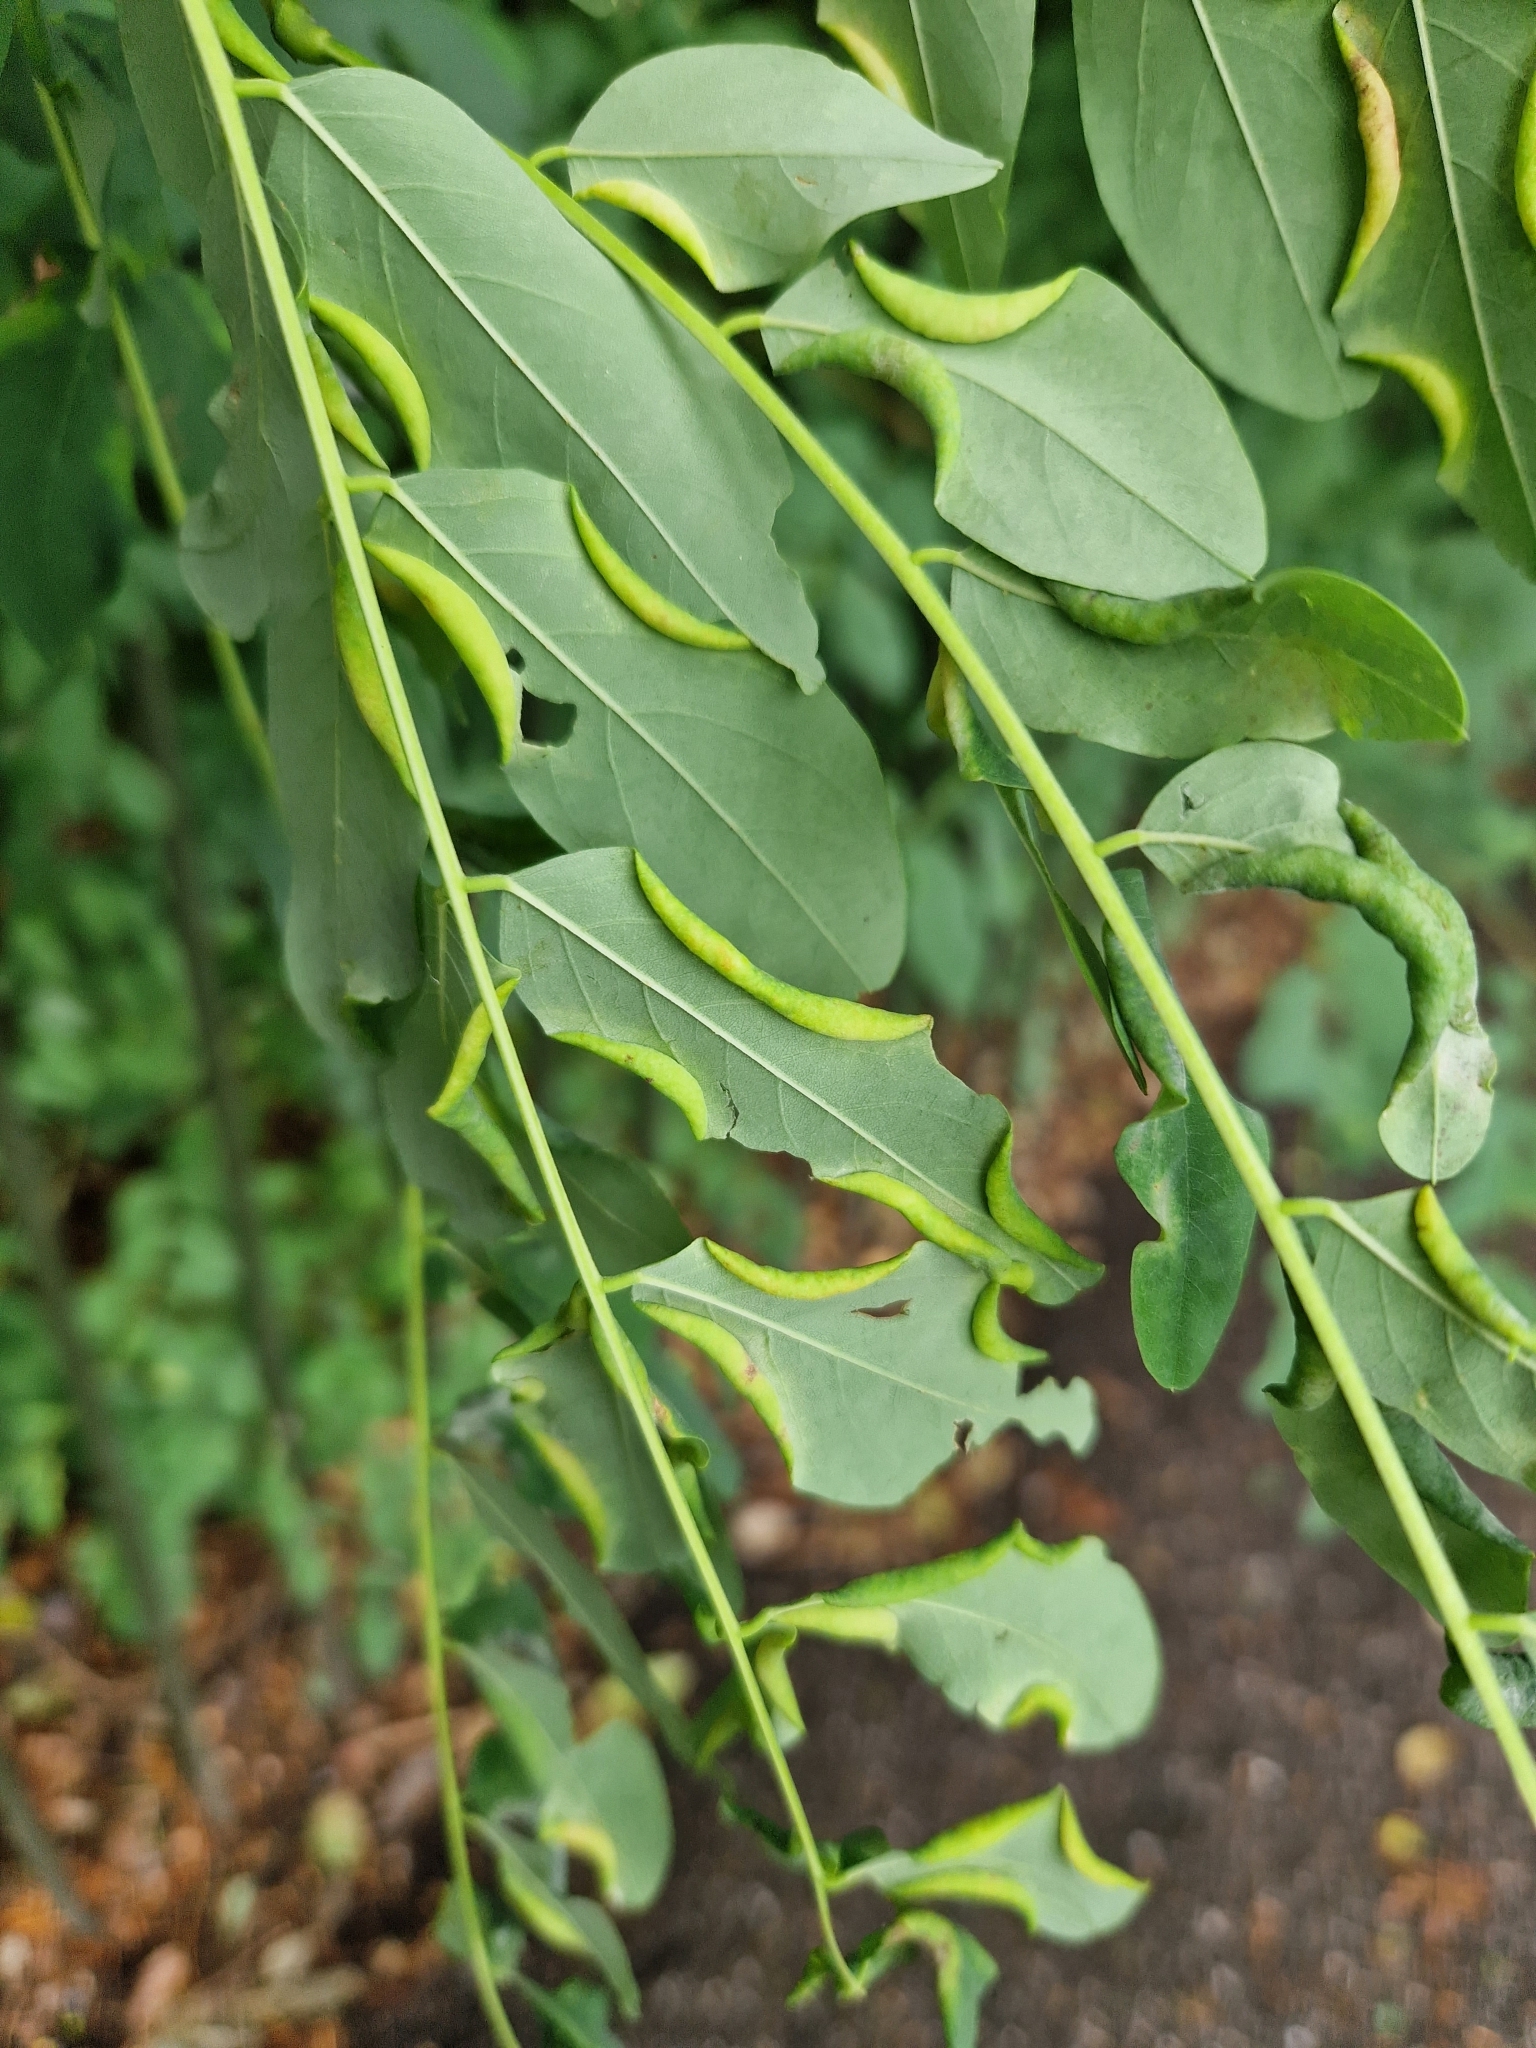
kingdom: Animalia
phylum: Arthropoda
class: Insecta
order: Diptera
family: Cecidomyiidae
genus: Obolodiplosis
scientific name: Obolodiplosis robiniae
